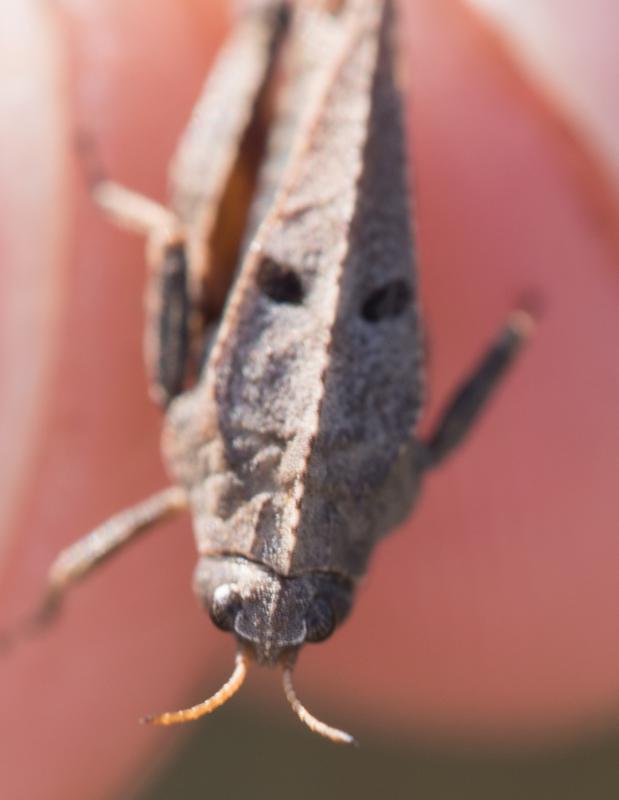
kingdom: Animalia
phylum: Arthropoda
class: Insecta
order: Orthoptera
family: Tetrigidae
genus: Tetrix
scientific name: Tetrix kraussi
